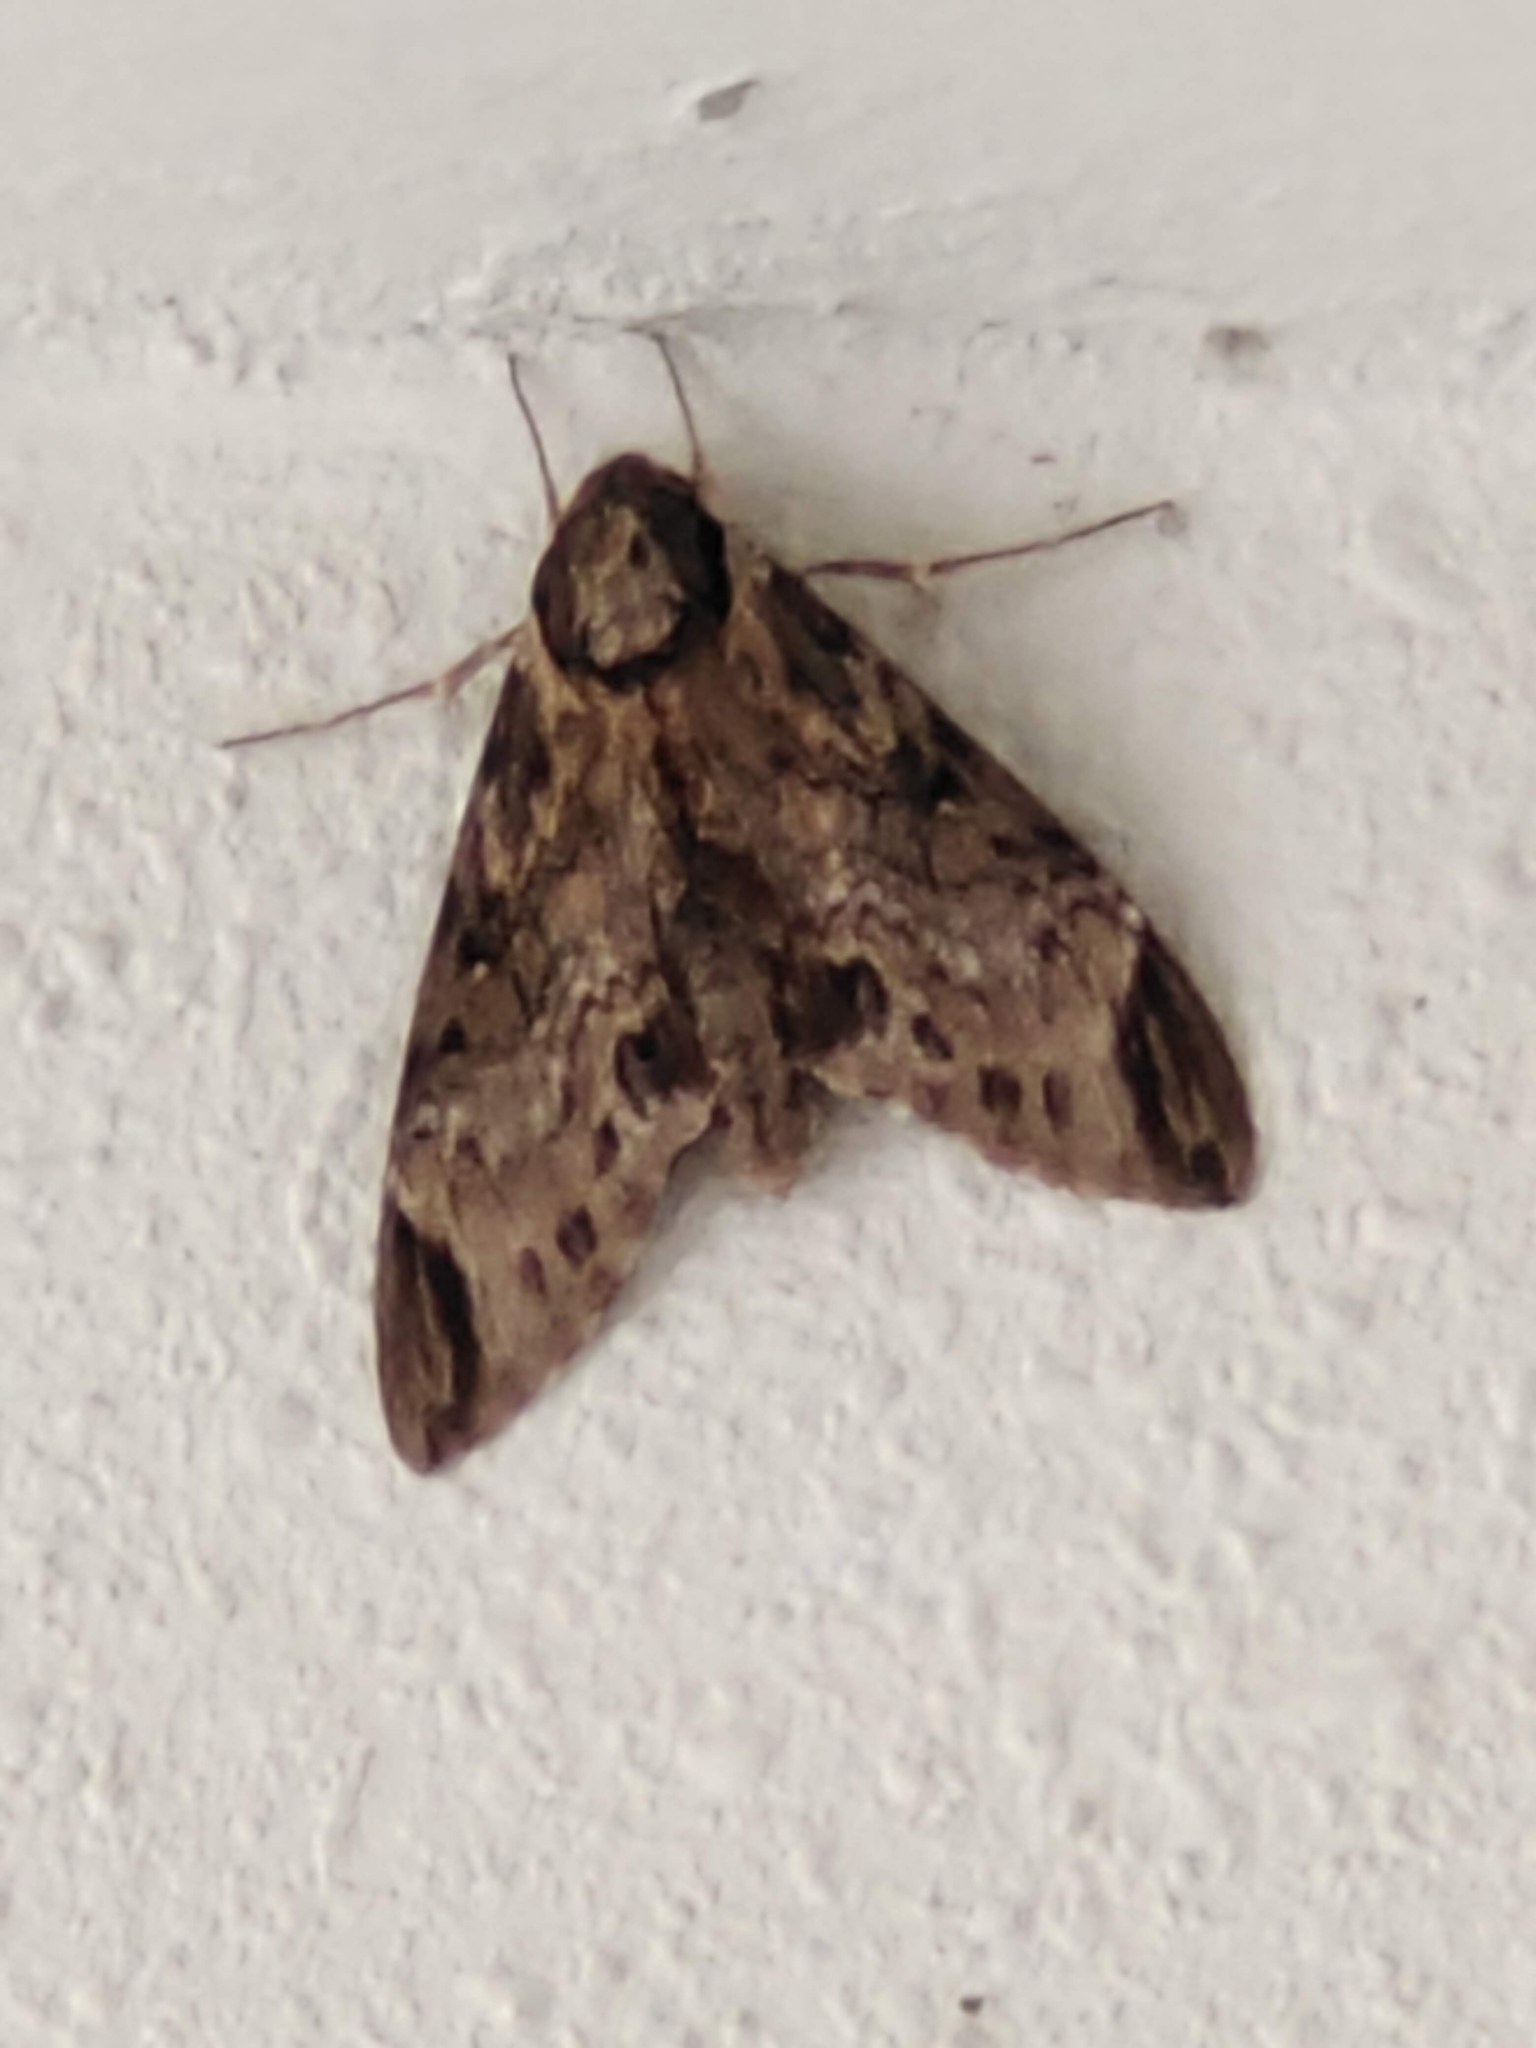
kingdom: Animalia
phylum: Arthropoda
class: Insecta
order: Lepidoptera
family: Sphingidae
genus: Psilogramma
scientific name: Psilogramma discistriga
